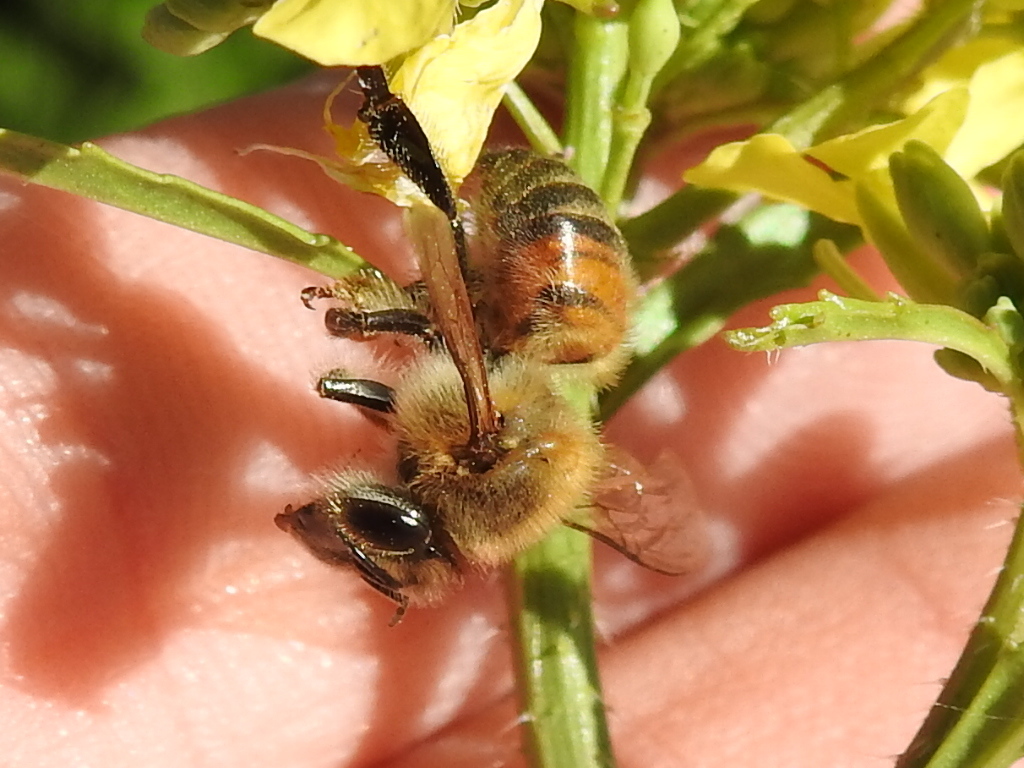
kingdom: Animalia
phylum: Arthropoda
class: Insecta
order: Hymenoptera
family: Apidae
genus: Apis
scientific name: Apis mellifera
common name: Honey bee
